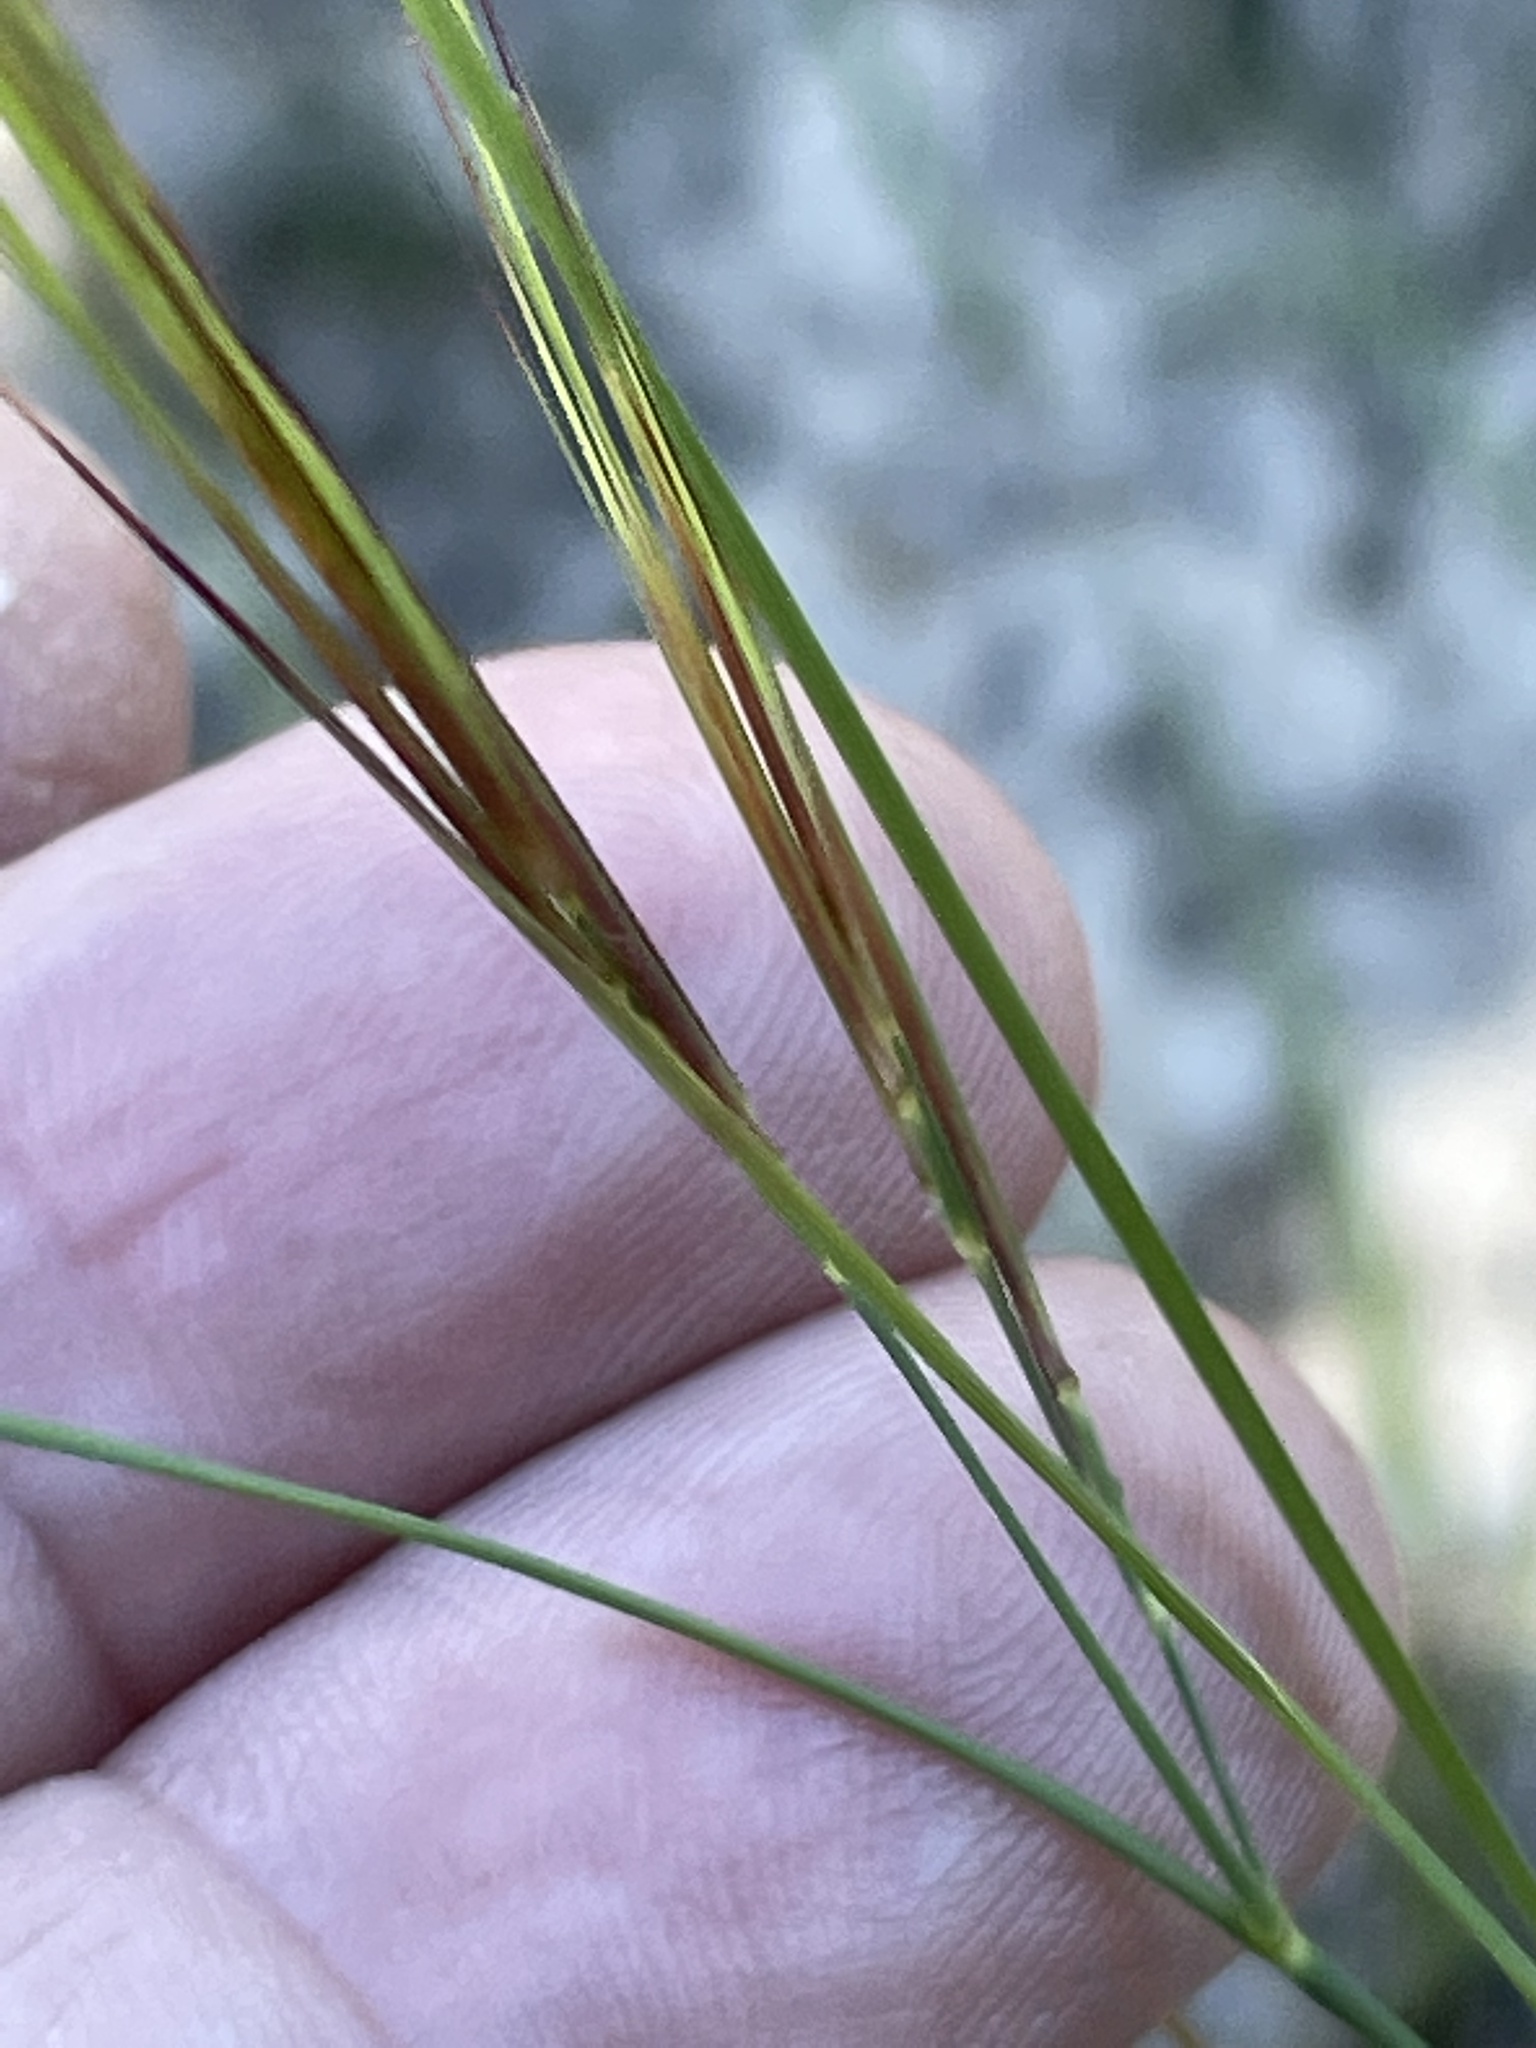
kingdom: Plantae
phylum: Tracheophyta
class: Liliopsida
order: Poales
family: Poaceae
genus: Aristida
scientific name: Aristida tuberculosa
